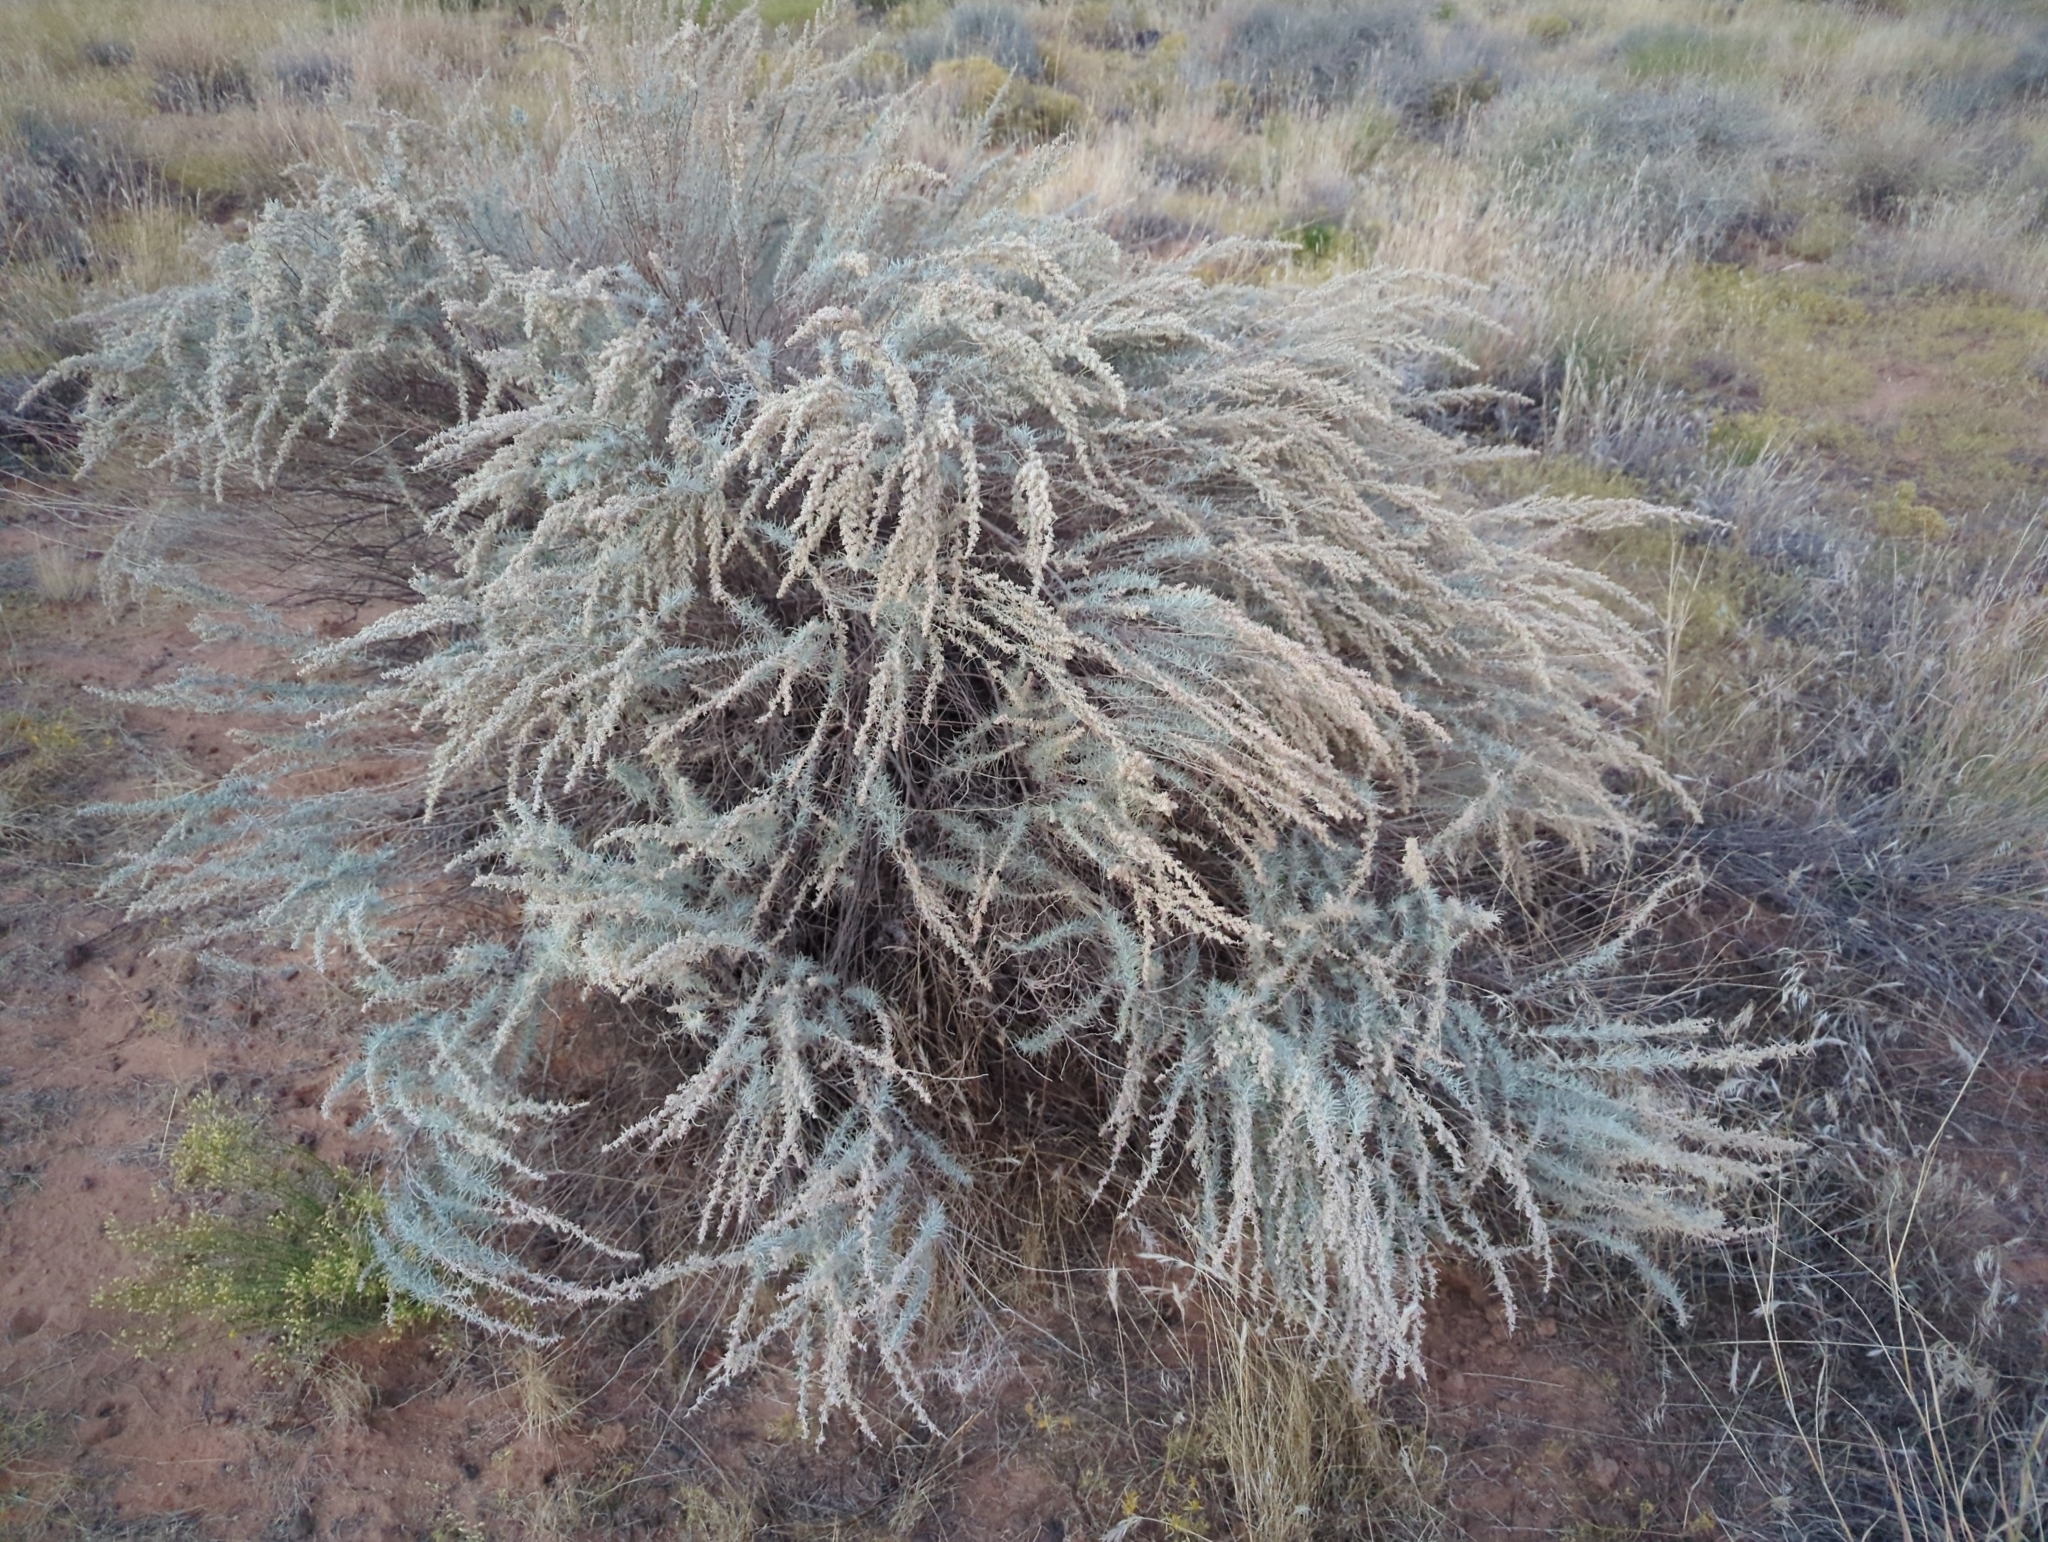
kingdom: Plantae
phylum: Tracheophyta
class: Magnoliopsida
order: Asterales
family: Asteraceae
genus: Artemisia
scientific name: Artemisia filifolia
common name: Sand-sage
